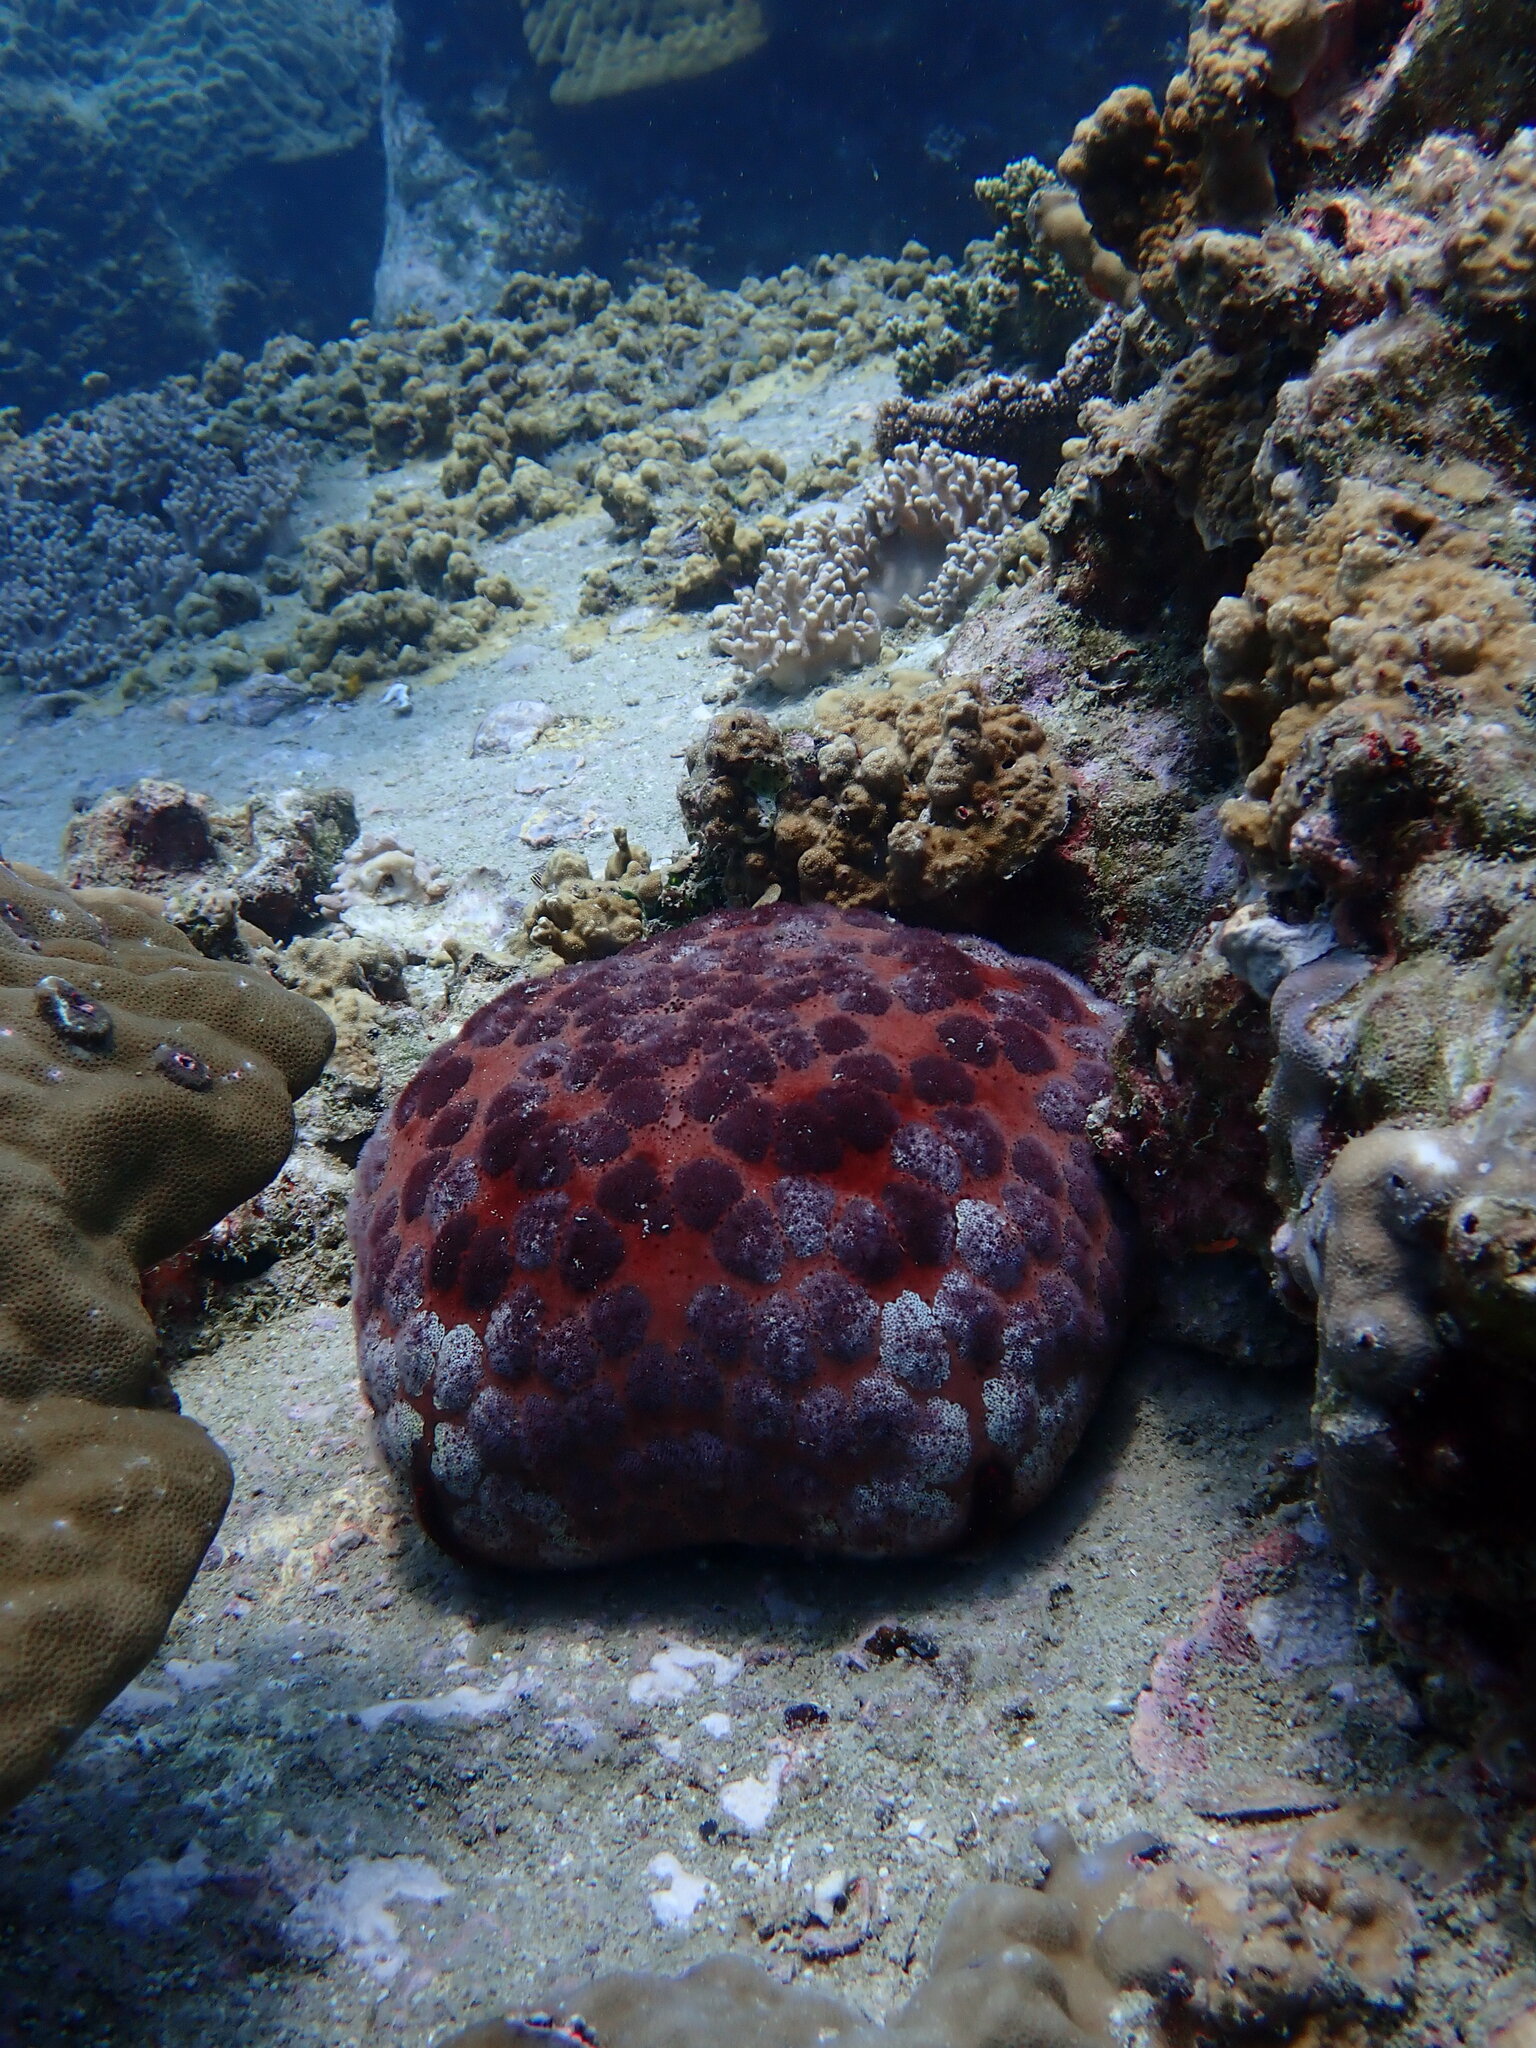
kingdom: Animalia
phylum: Echinodermata
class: Asteroidea
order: Valvatida
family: Oreasteridae
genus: Culcita
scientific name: Culcita novaeguineae
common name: Cushion star
